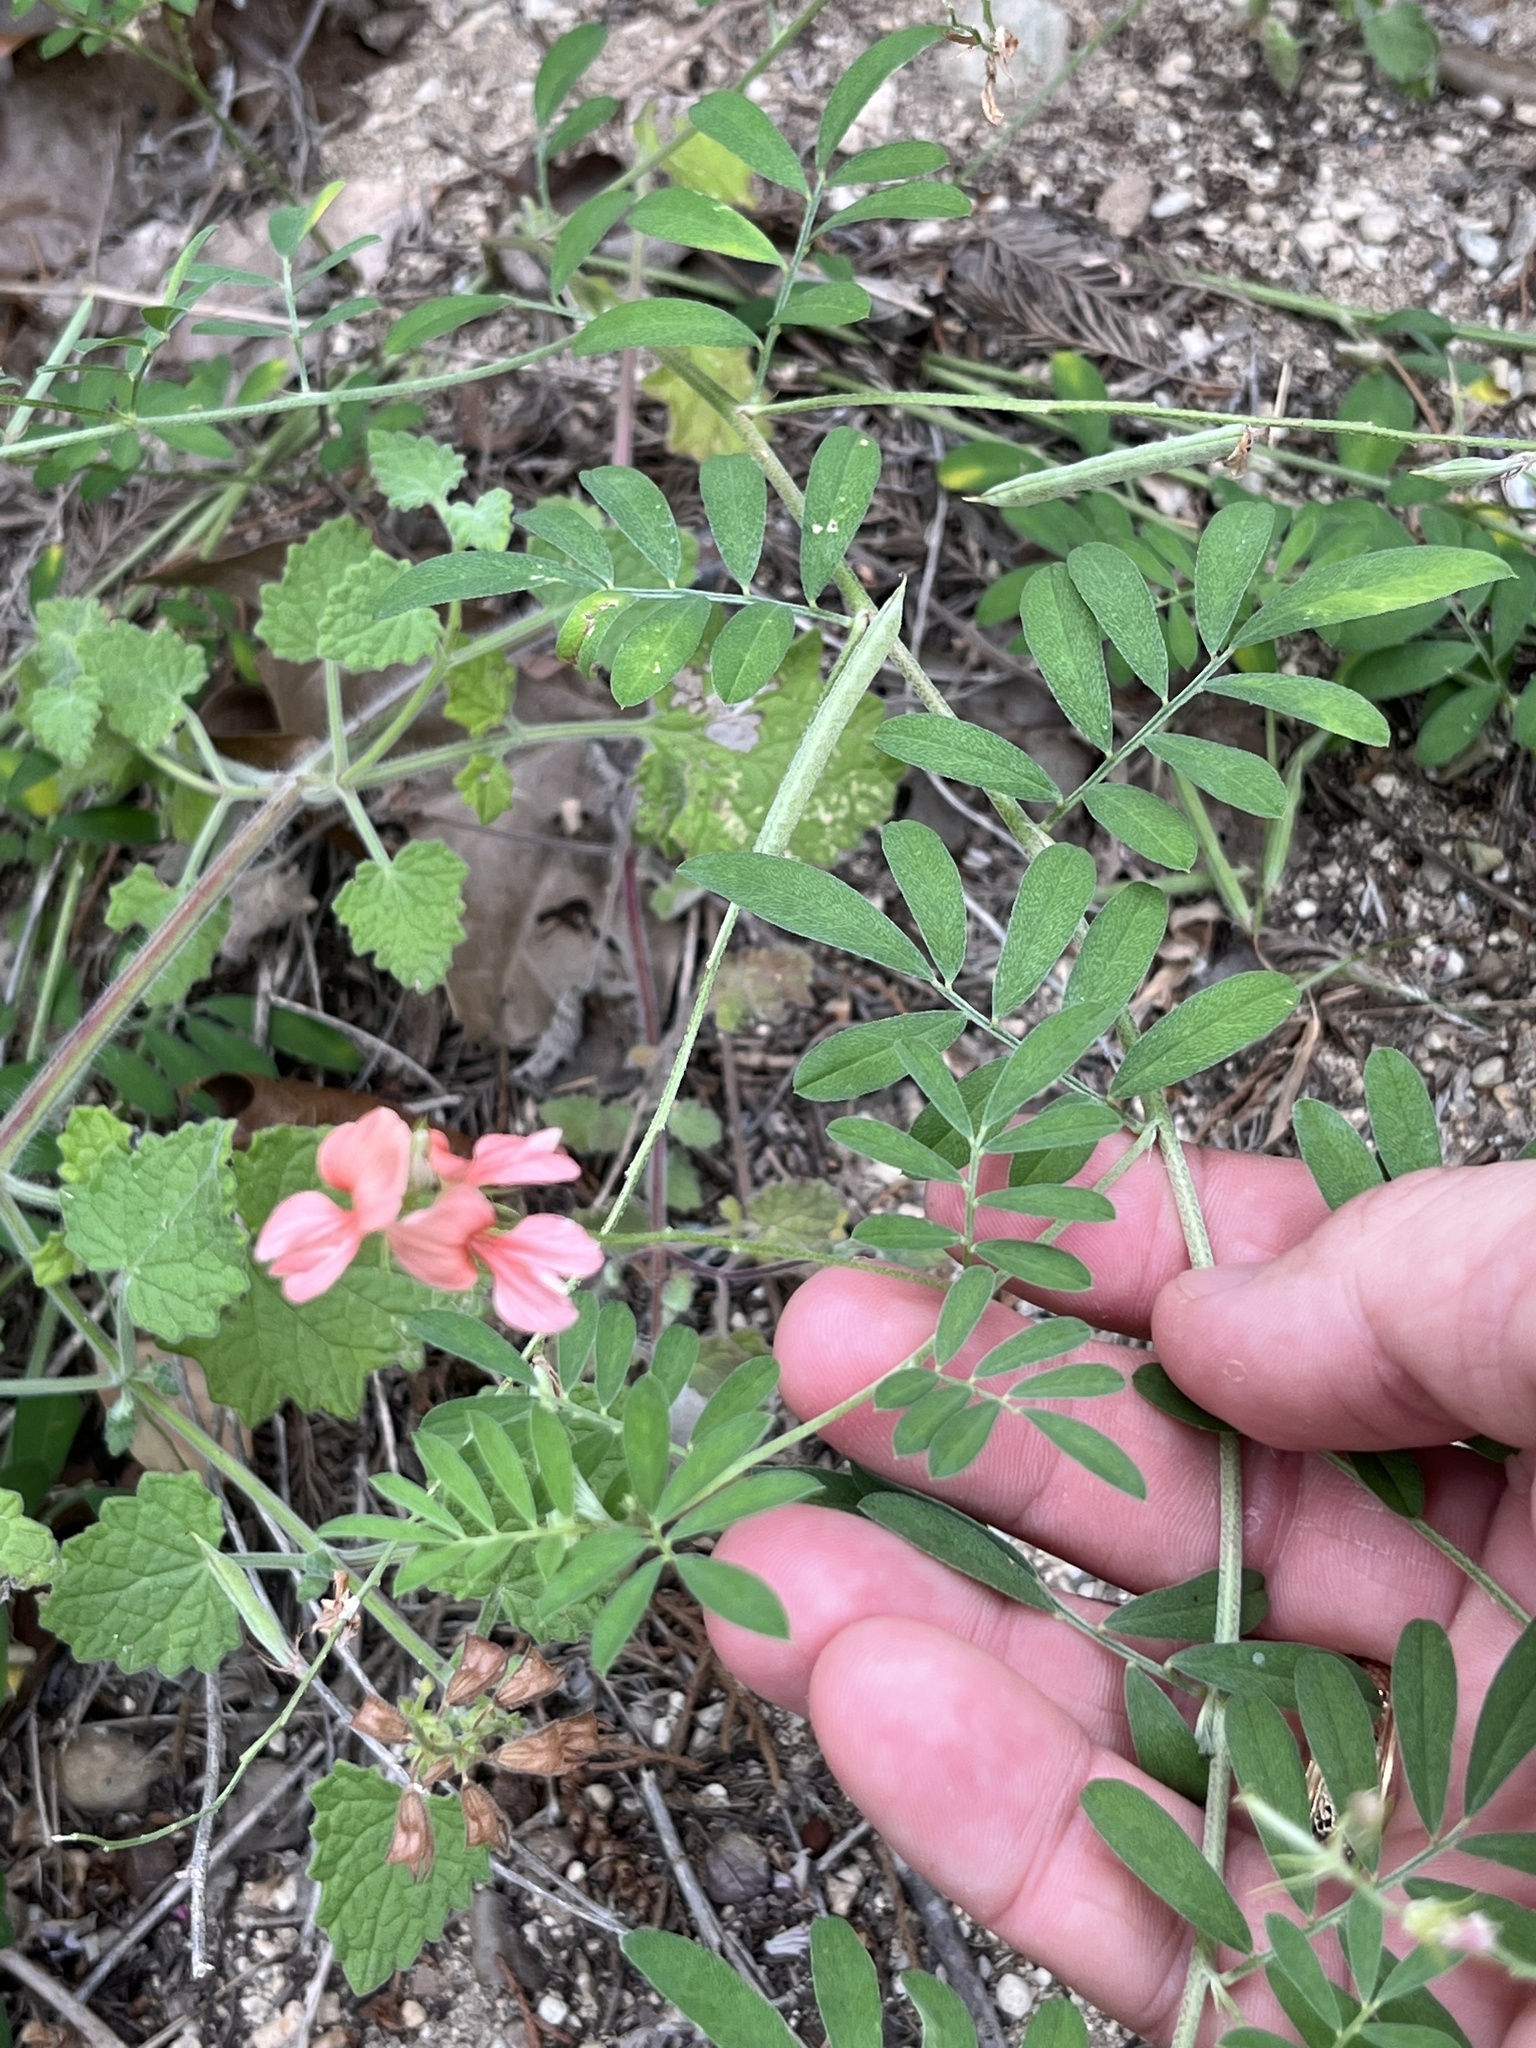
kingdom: Plantae
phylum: Tracheophyta
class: Magnoliopsida
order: Fabales
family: Fabaceae
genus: Indigofera
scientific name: Indigofera miniata
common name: Coast indigo
